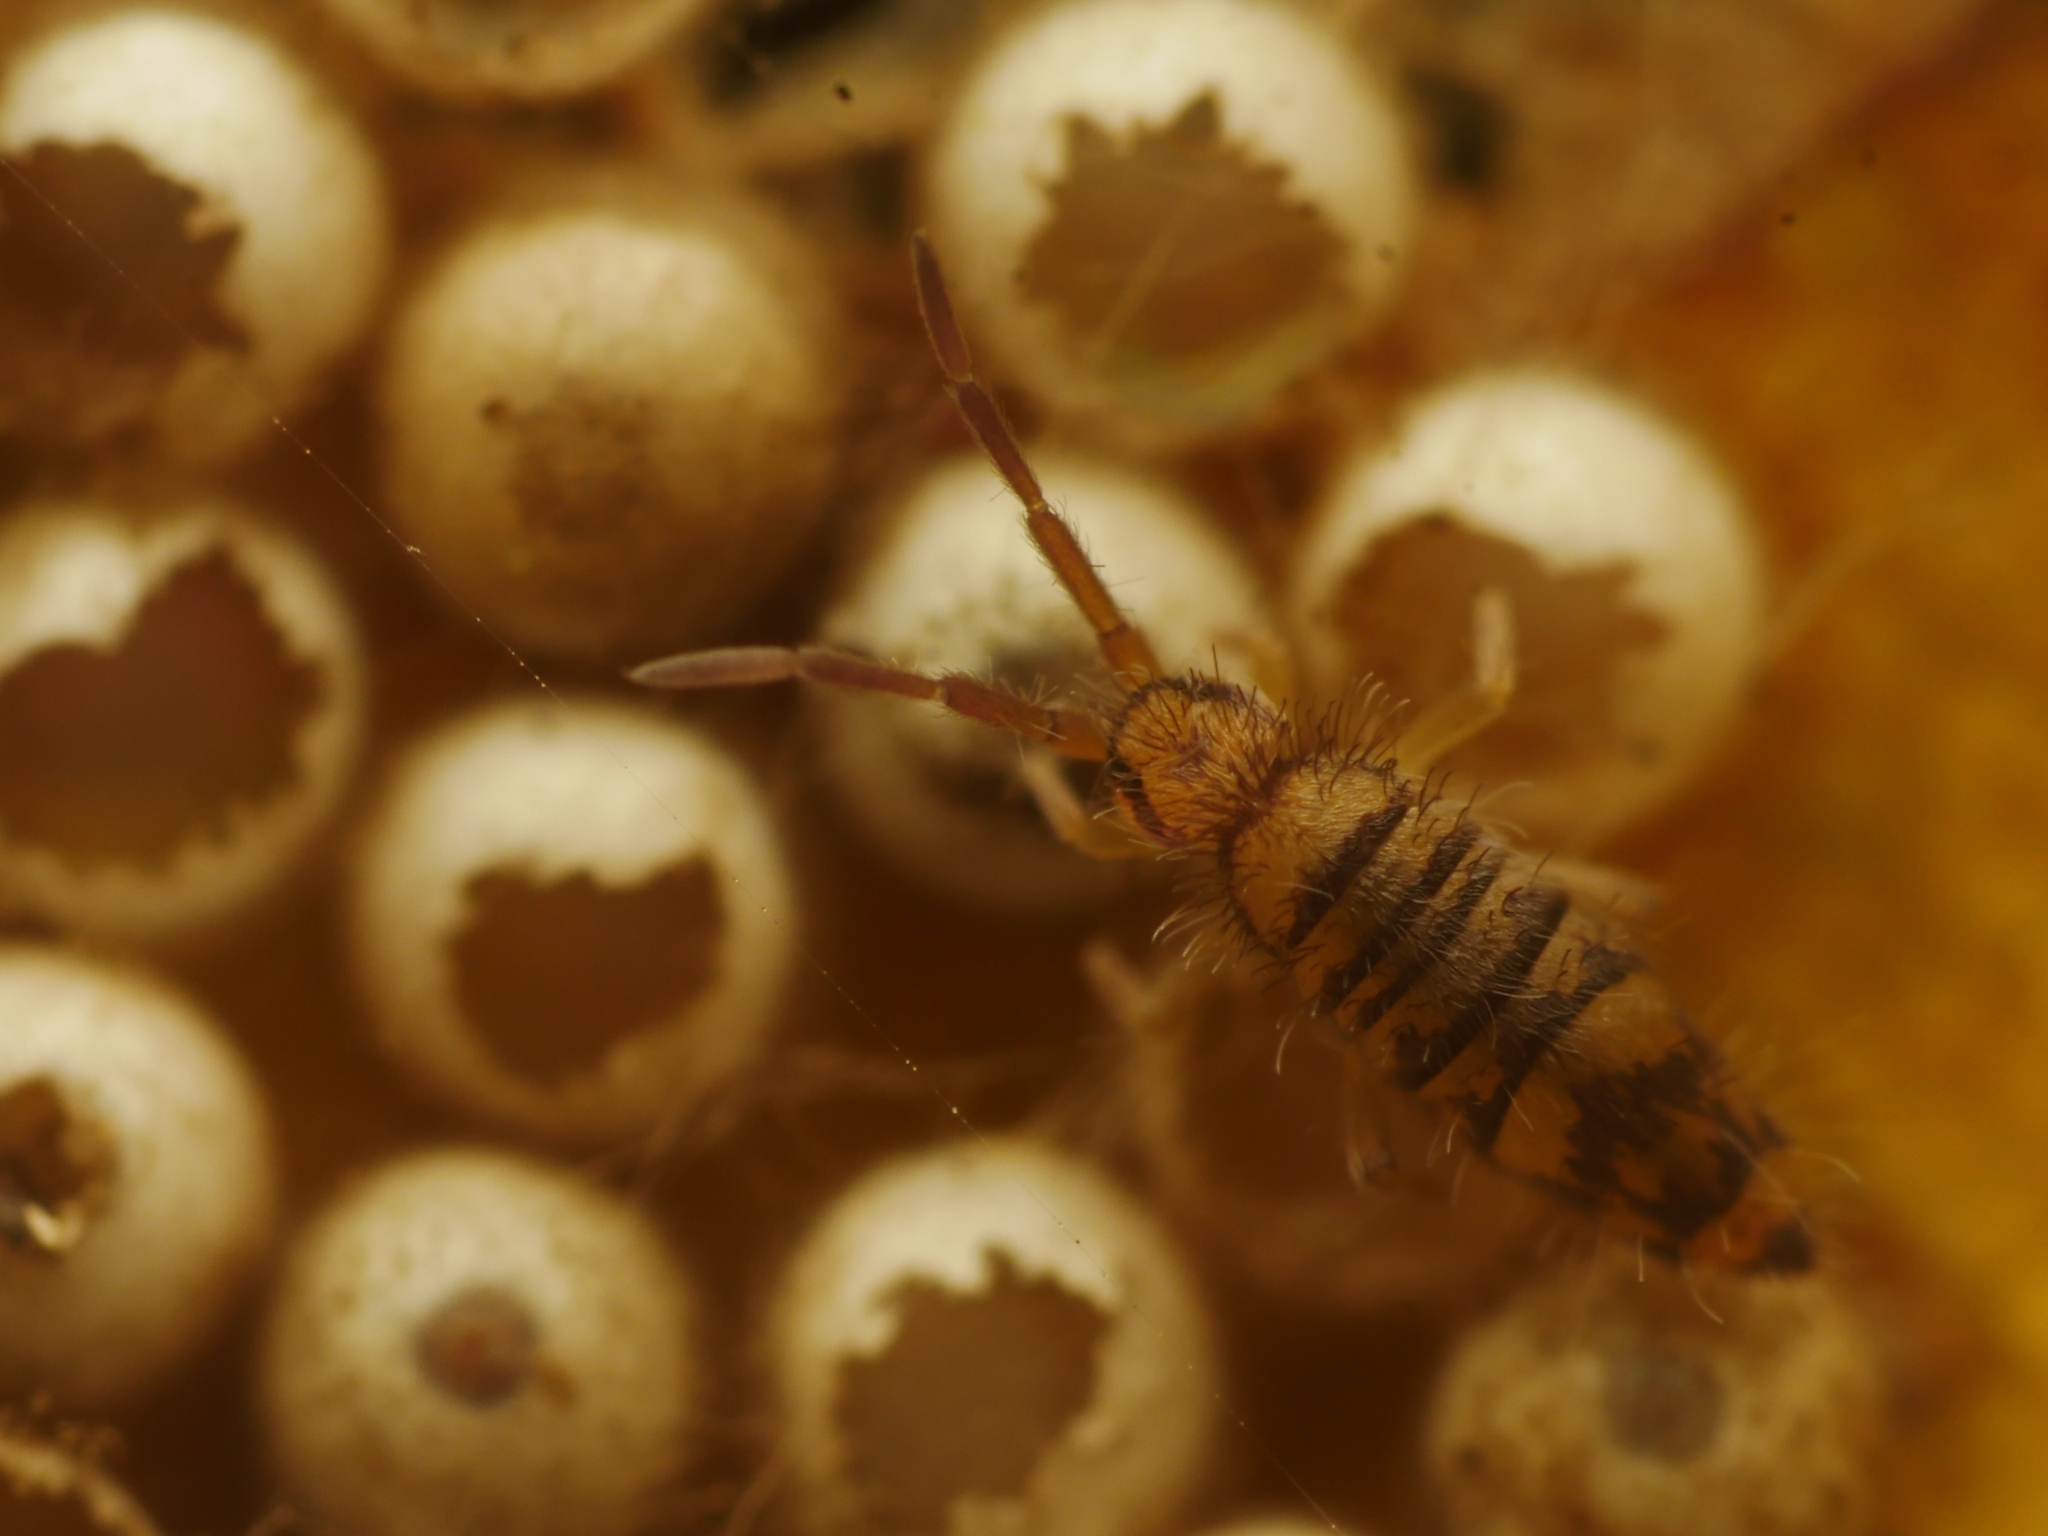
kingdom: Animalia
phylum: Arthropoda
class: Collembola
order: Entomobryomorpha
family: Entomobryidae
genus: Entomobrya
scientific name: Entomobrya multifasciata
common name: Springtail
